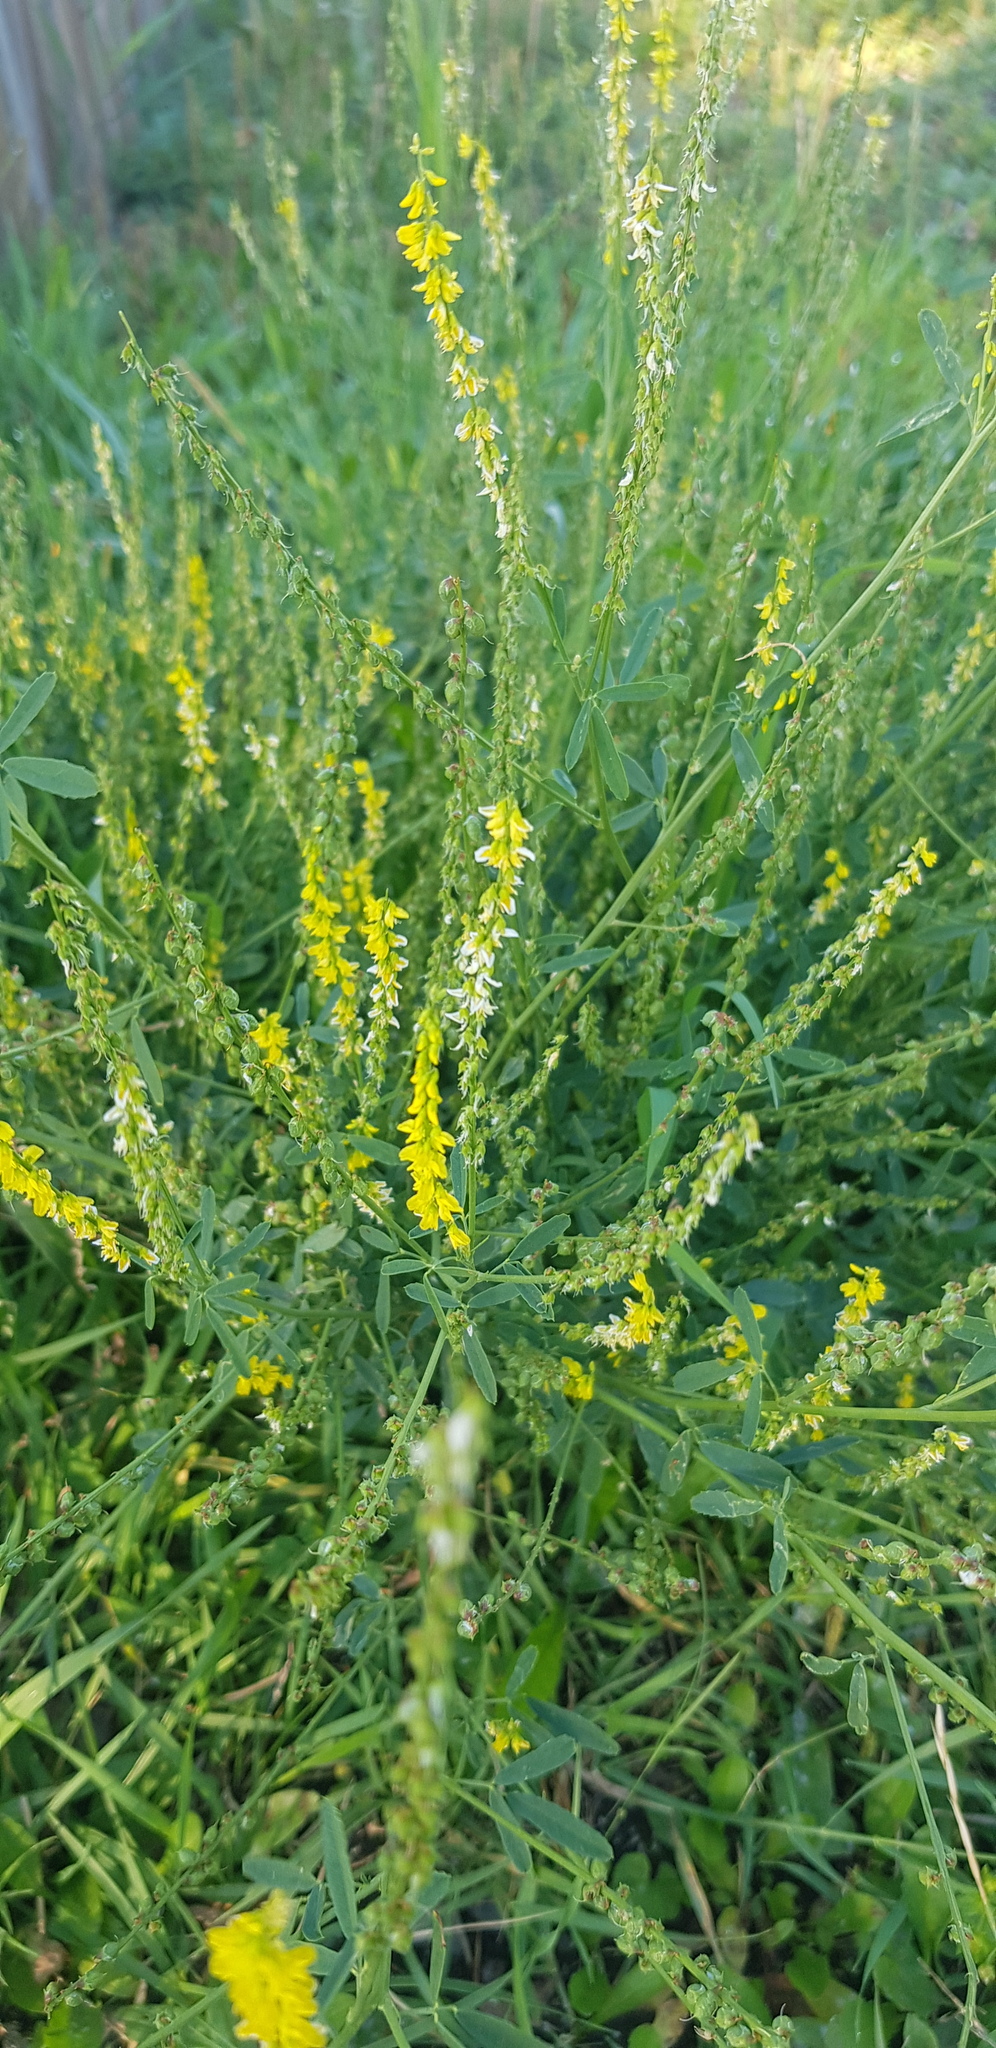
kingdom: Plantae
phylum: Tracheophyta
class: Magnoliopsida
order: Fabales
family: Fabaceae
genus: Melilotus
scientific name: Melilotus officinalis
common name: Sweetclover
